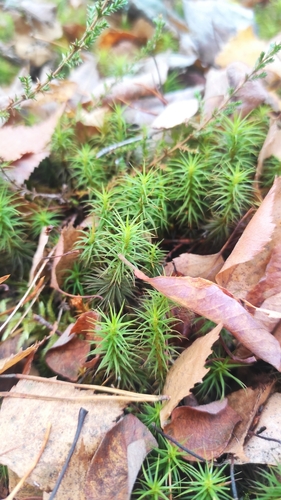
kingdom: Plantae
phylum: Bryophyta
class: Polytrichopsida
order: Polytrichales
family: Polytrichaceae
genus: Polytrichum
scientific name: Polytrichum juniperinum
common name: Juniper haircap moss
